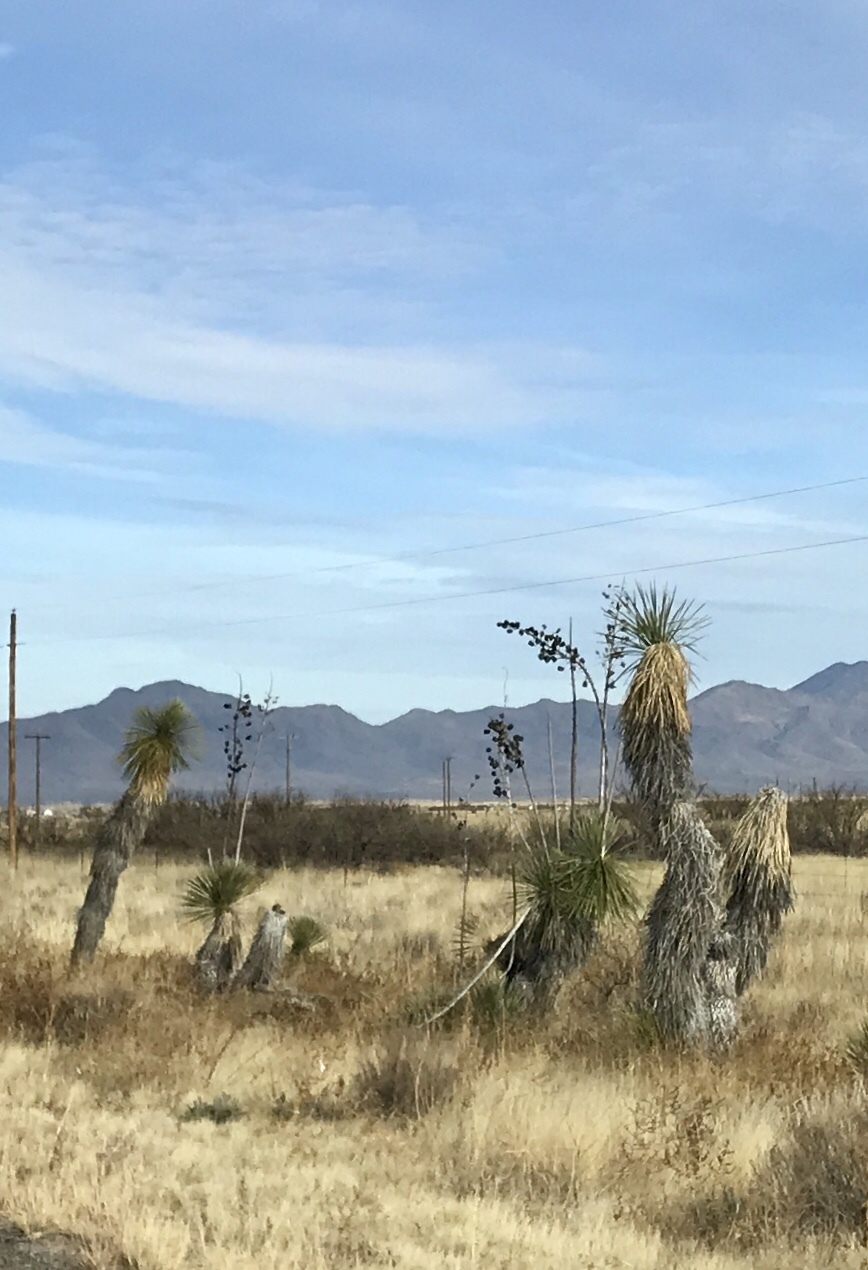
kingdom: Plantae
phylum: Tracheophyta
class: Liliopsida
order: Asparagales
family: Asparagaceae
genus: Yucca
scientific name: Yucca elata
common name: Palmella
